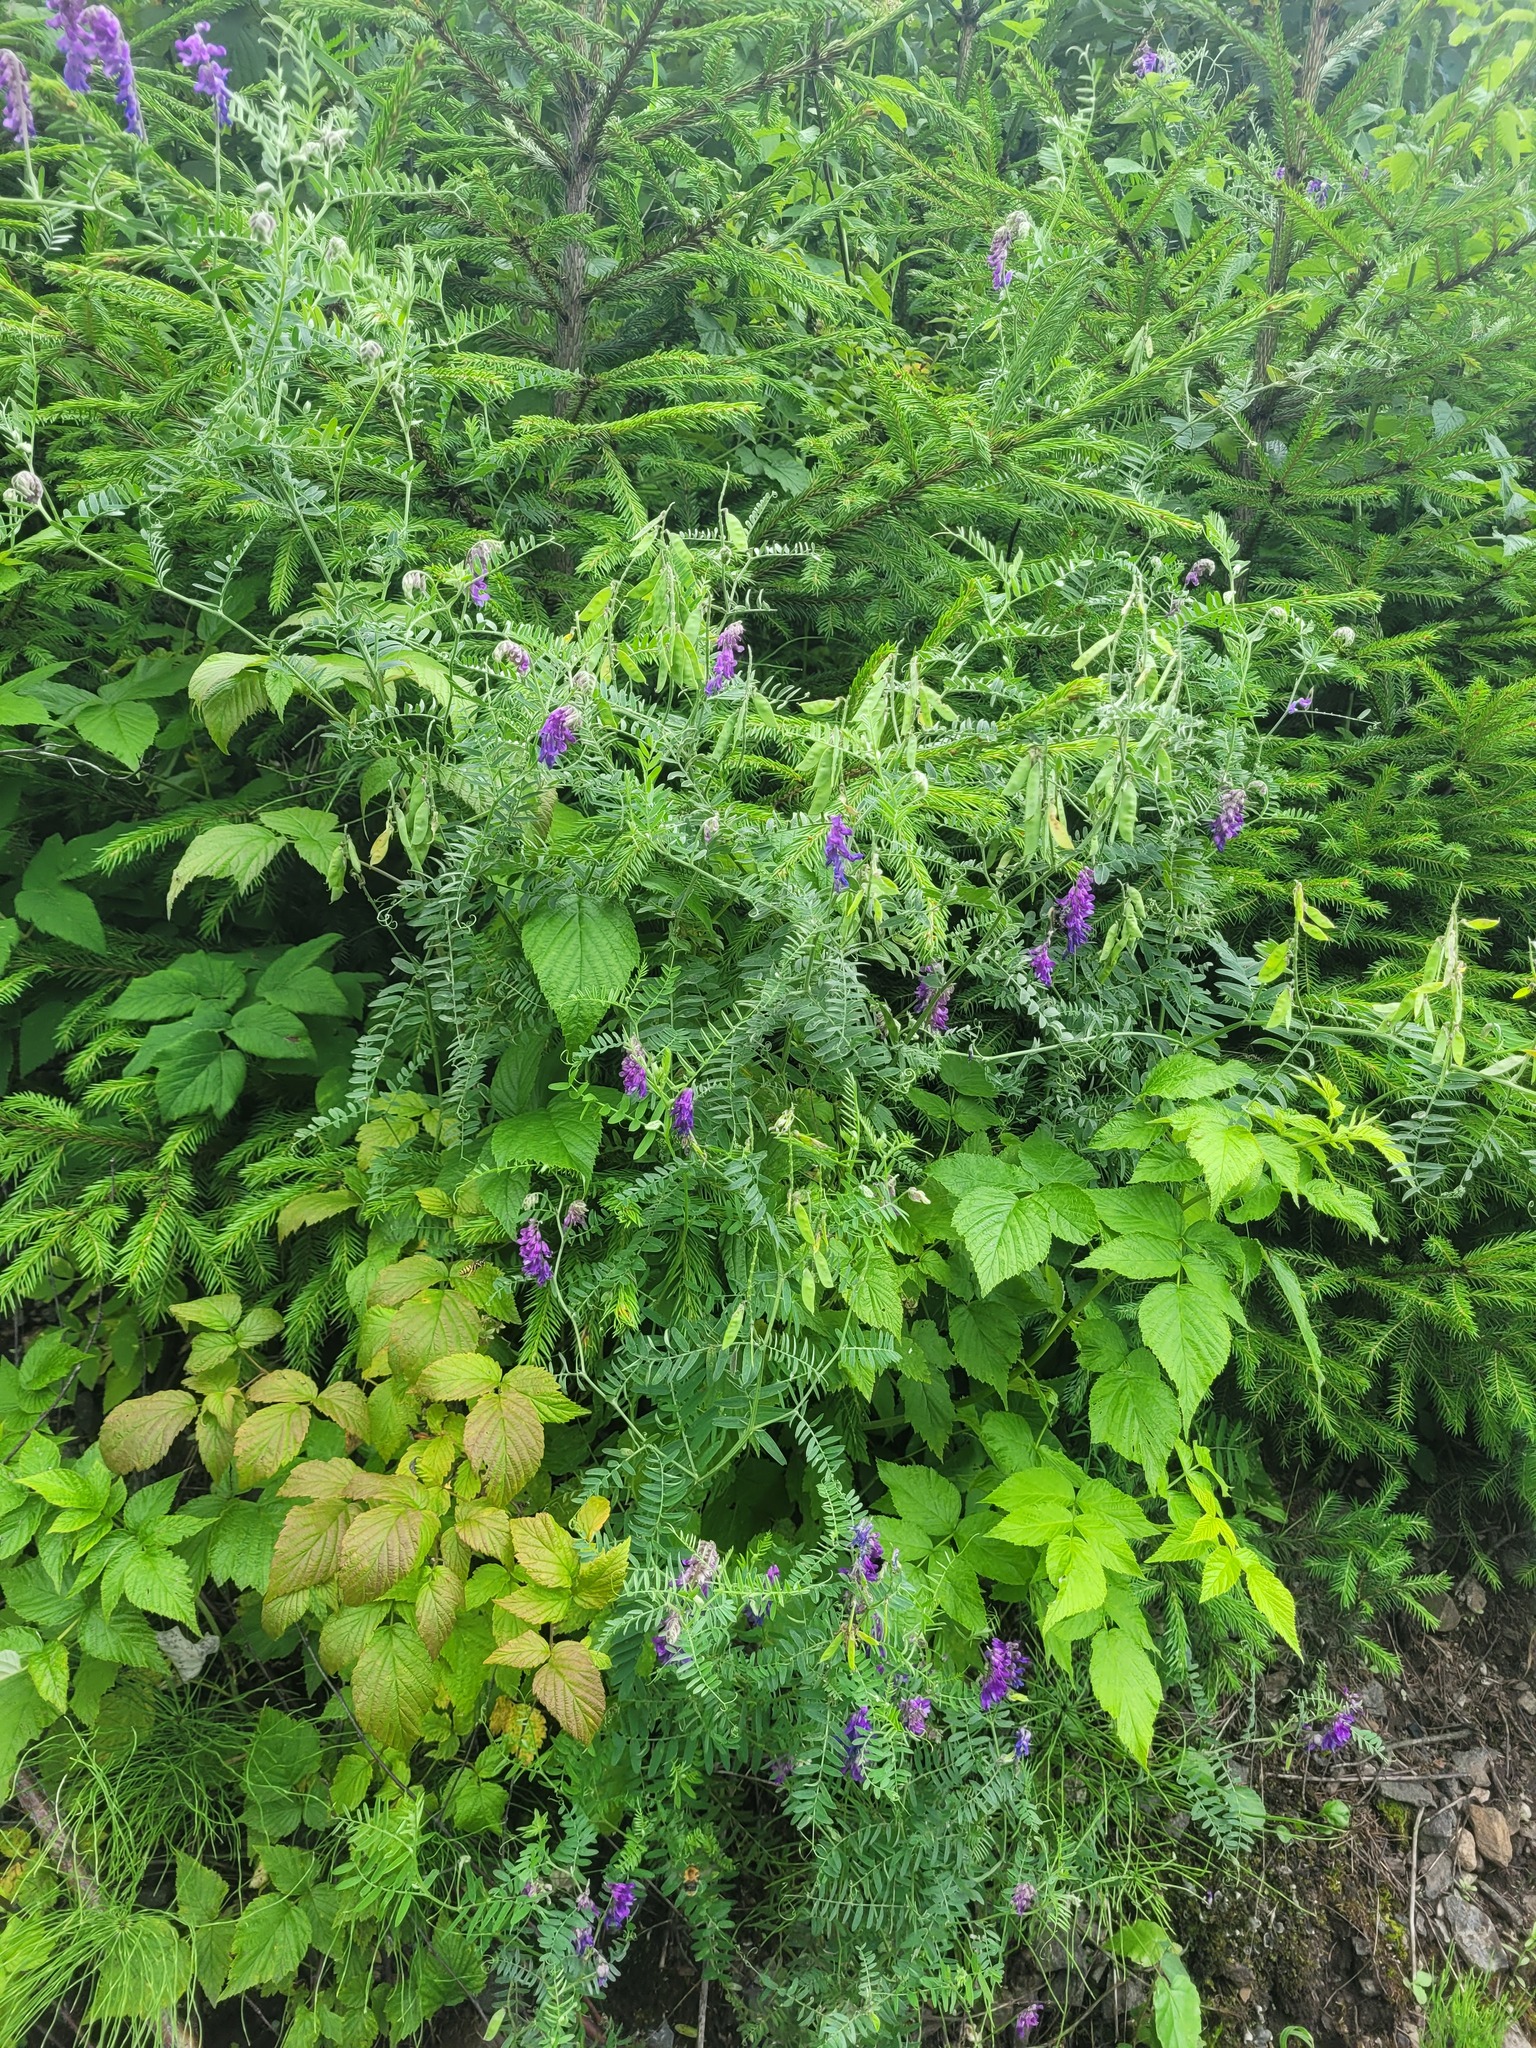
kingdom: Plantae
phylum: Tracheophyta
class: Magnoliopsida
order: Fabales
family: Fabaceae
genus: Vicia
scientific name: Vicia cracca
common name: Bird vetch
